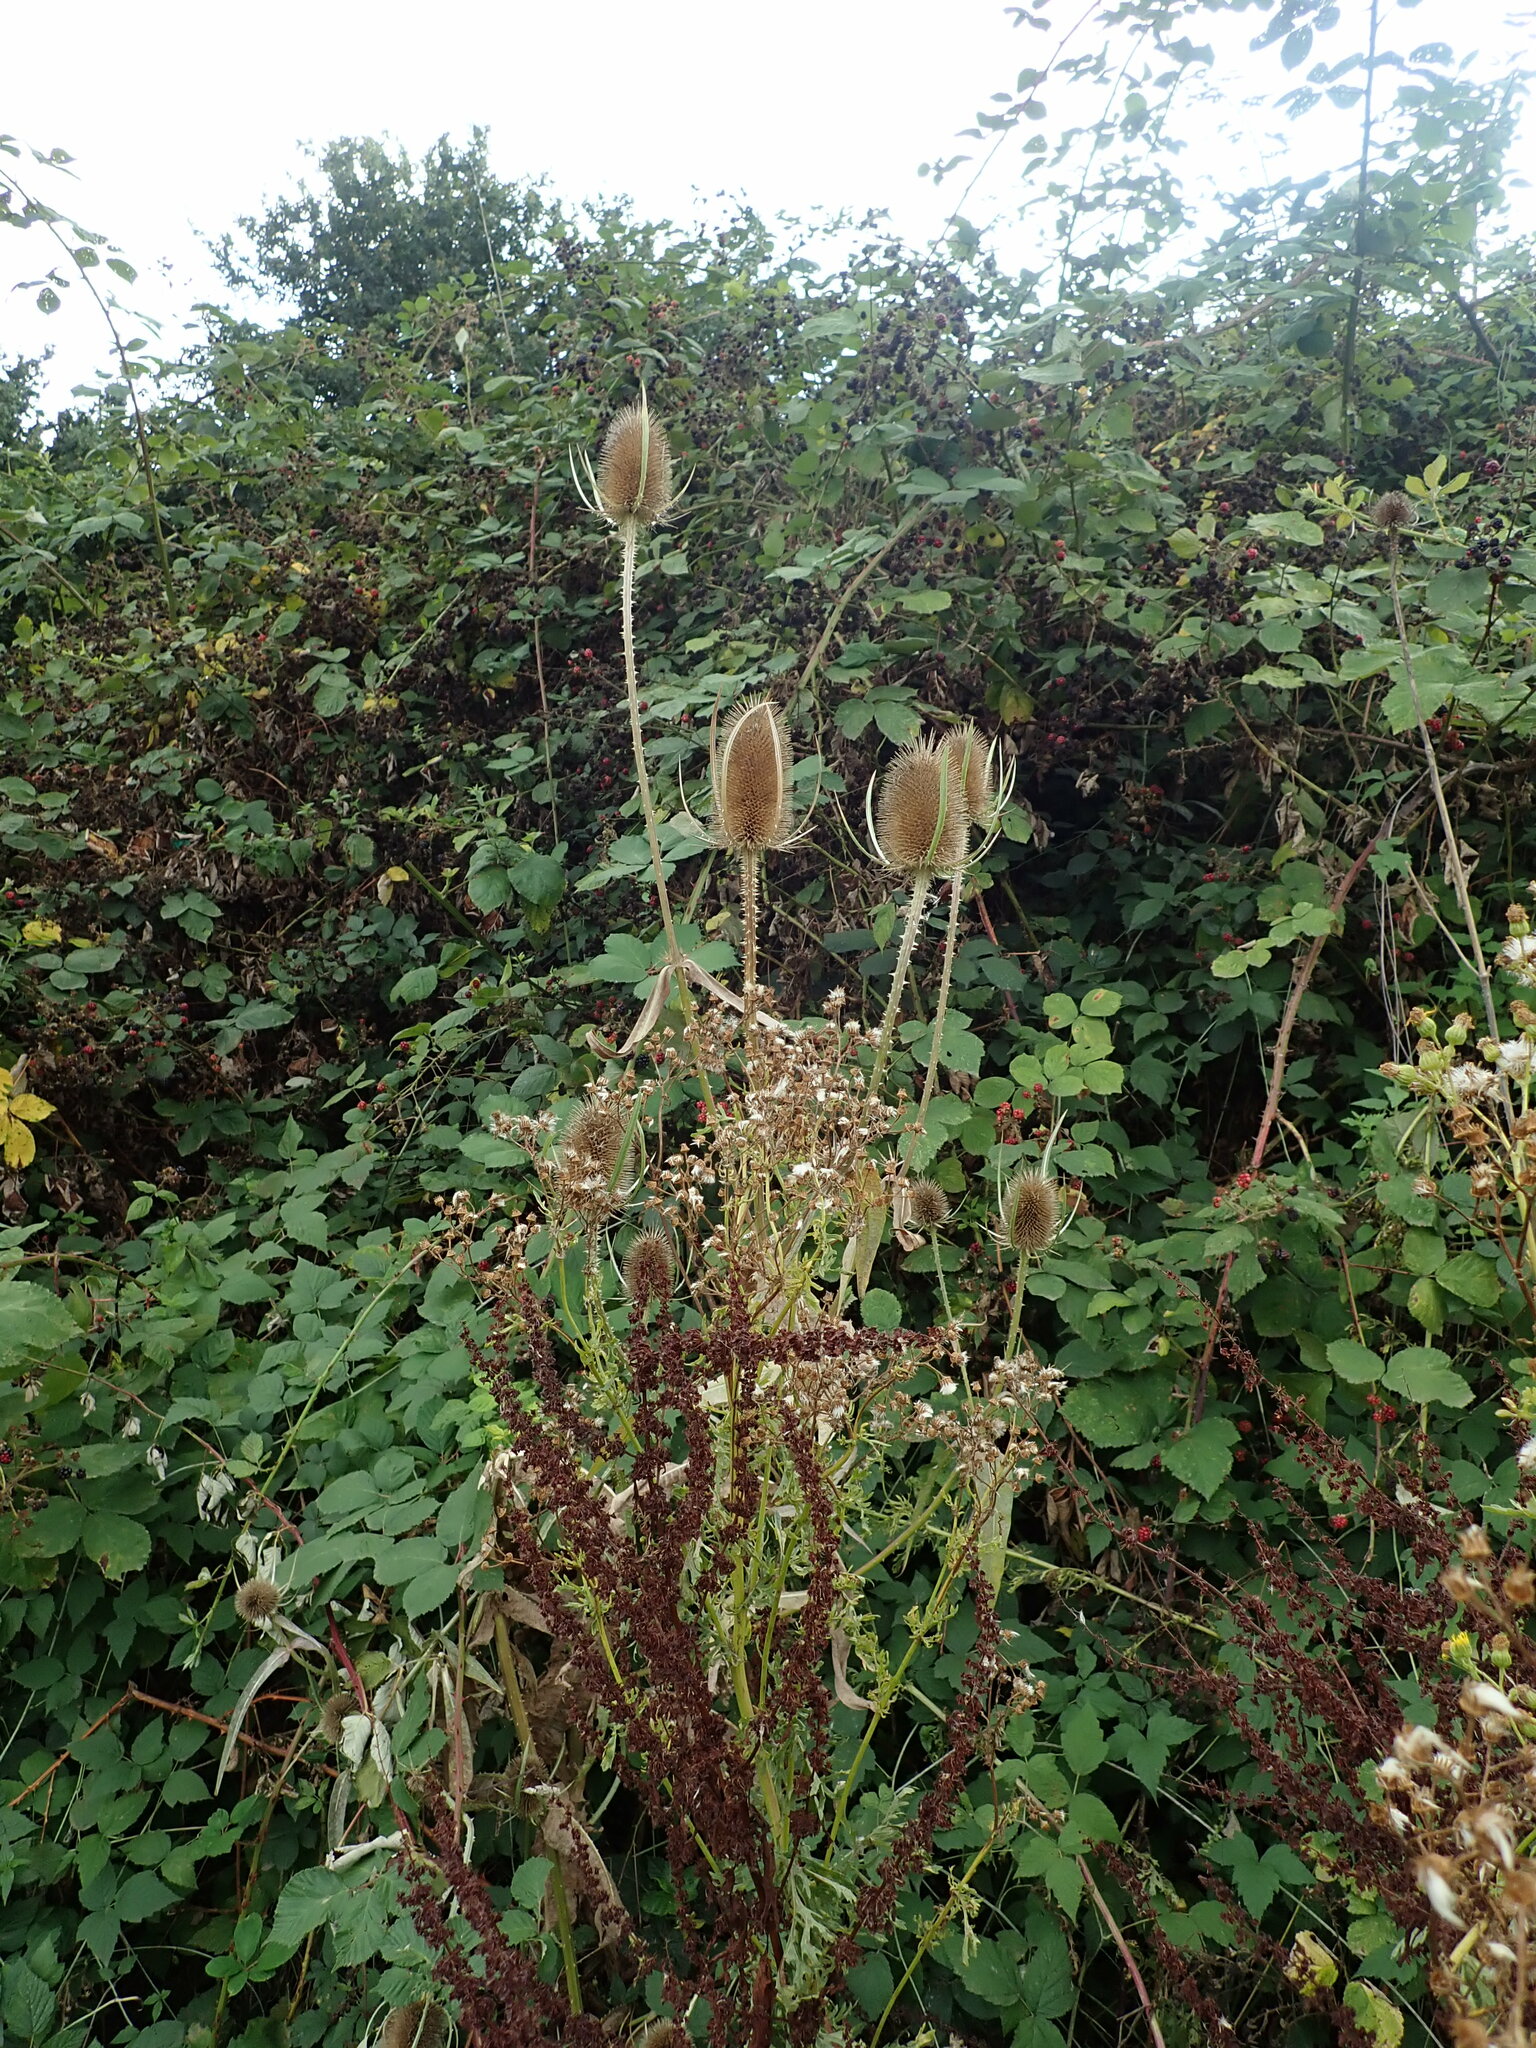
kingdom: Plantae
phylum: Tracheophyta
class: Magnoliopsida
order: Dipsacales
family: Caprifoliaceae
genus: Dipsacus
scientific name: Dipsacus fullonum
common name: Teasel
